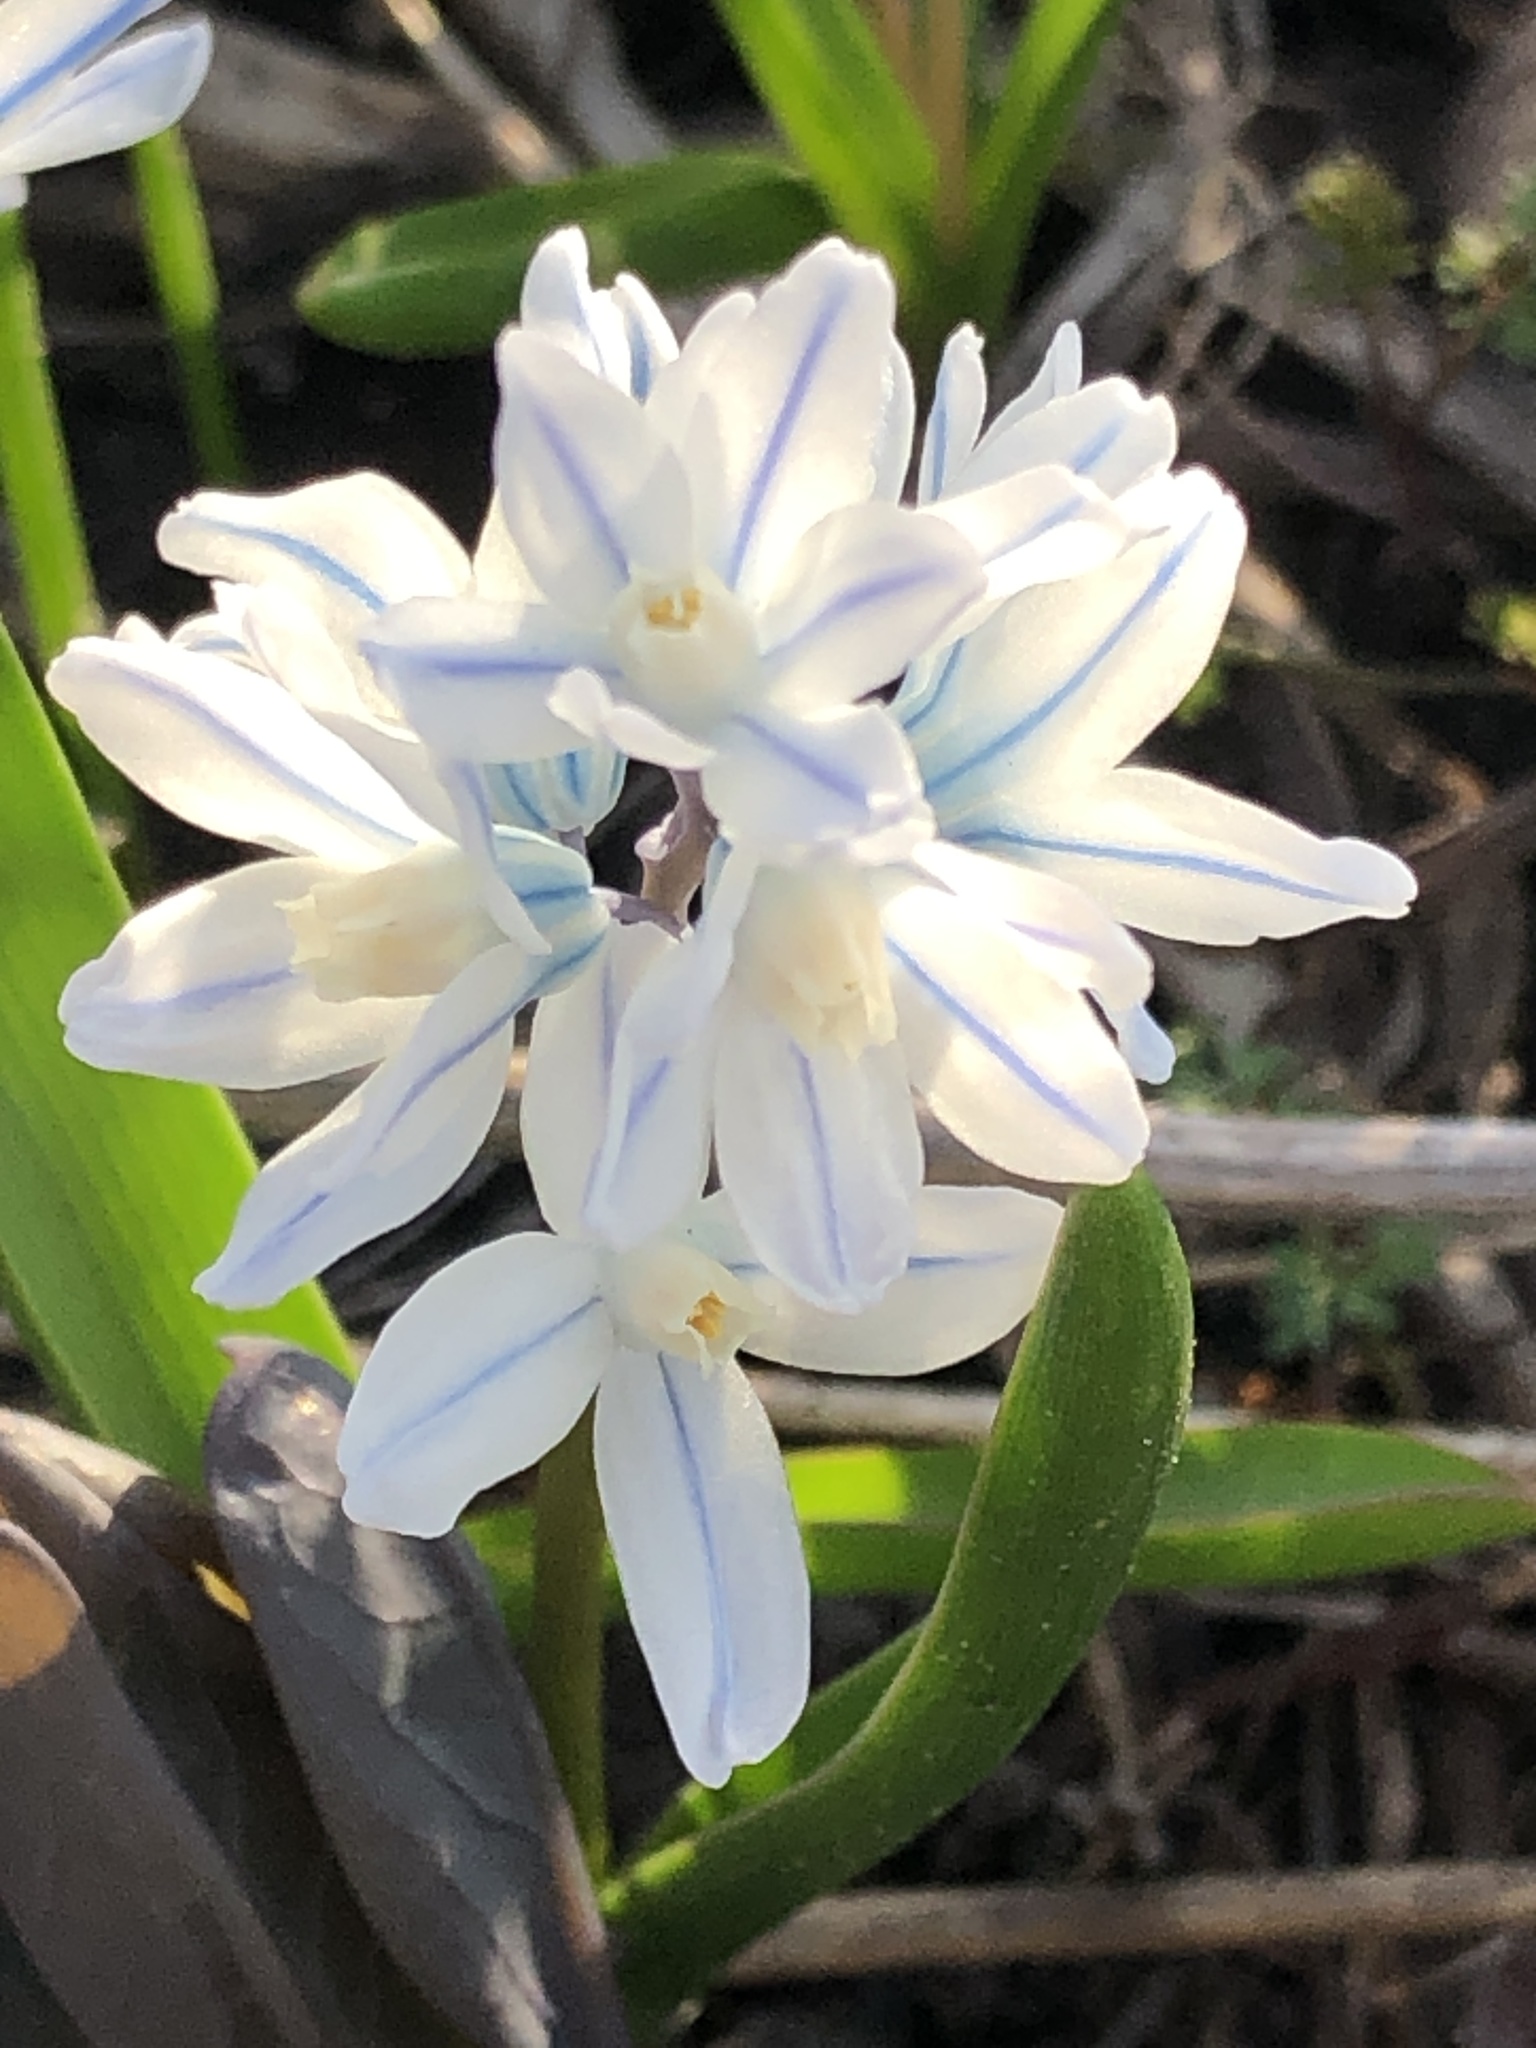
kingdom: Plantae
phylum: Tracheophyta
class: Liliopsida
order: Asparagales
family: Asparagaceae
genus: Puschkinia
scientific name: Puschkinia scilloides
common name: Striped squill
